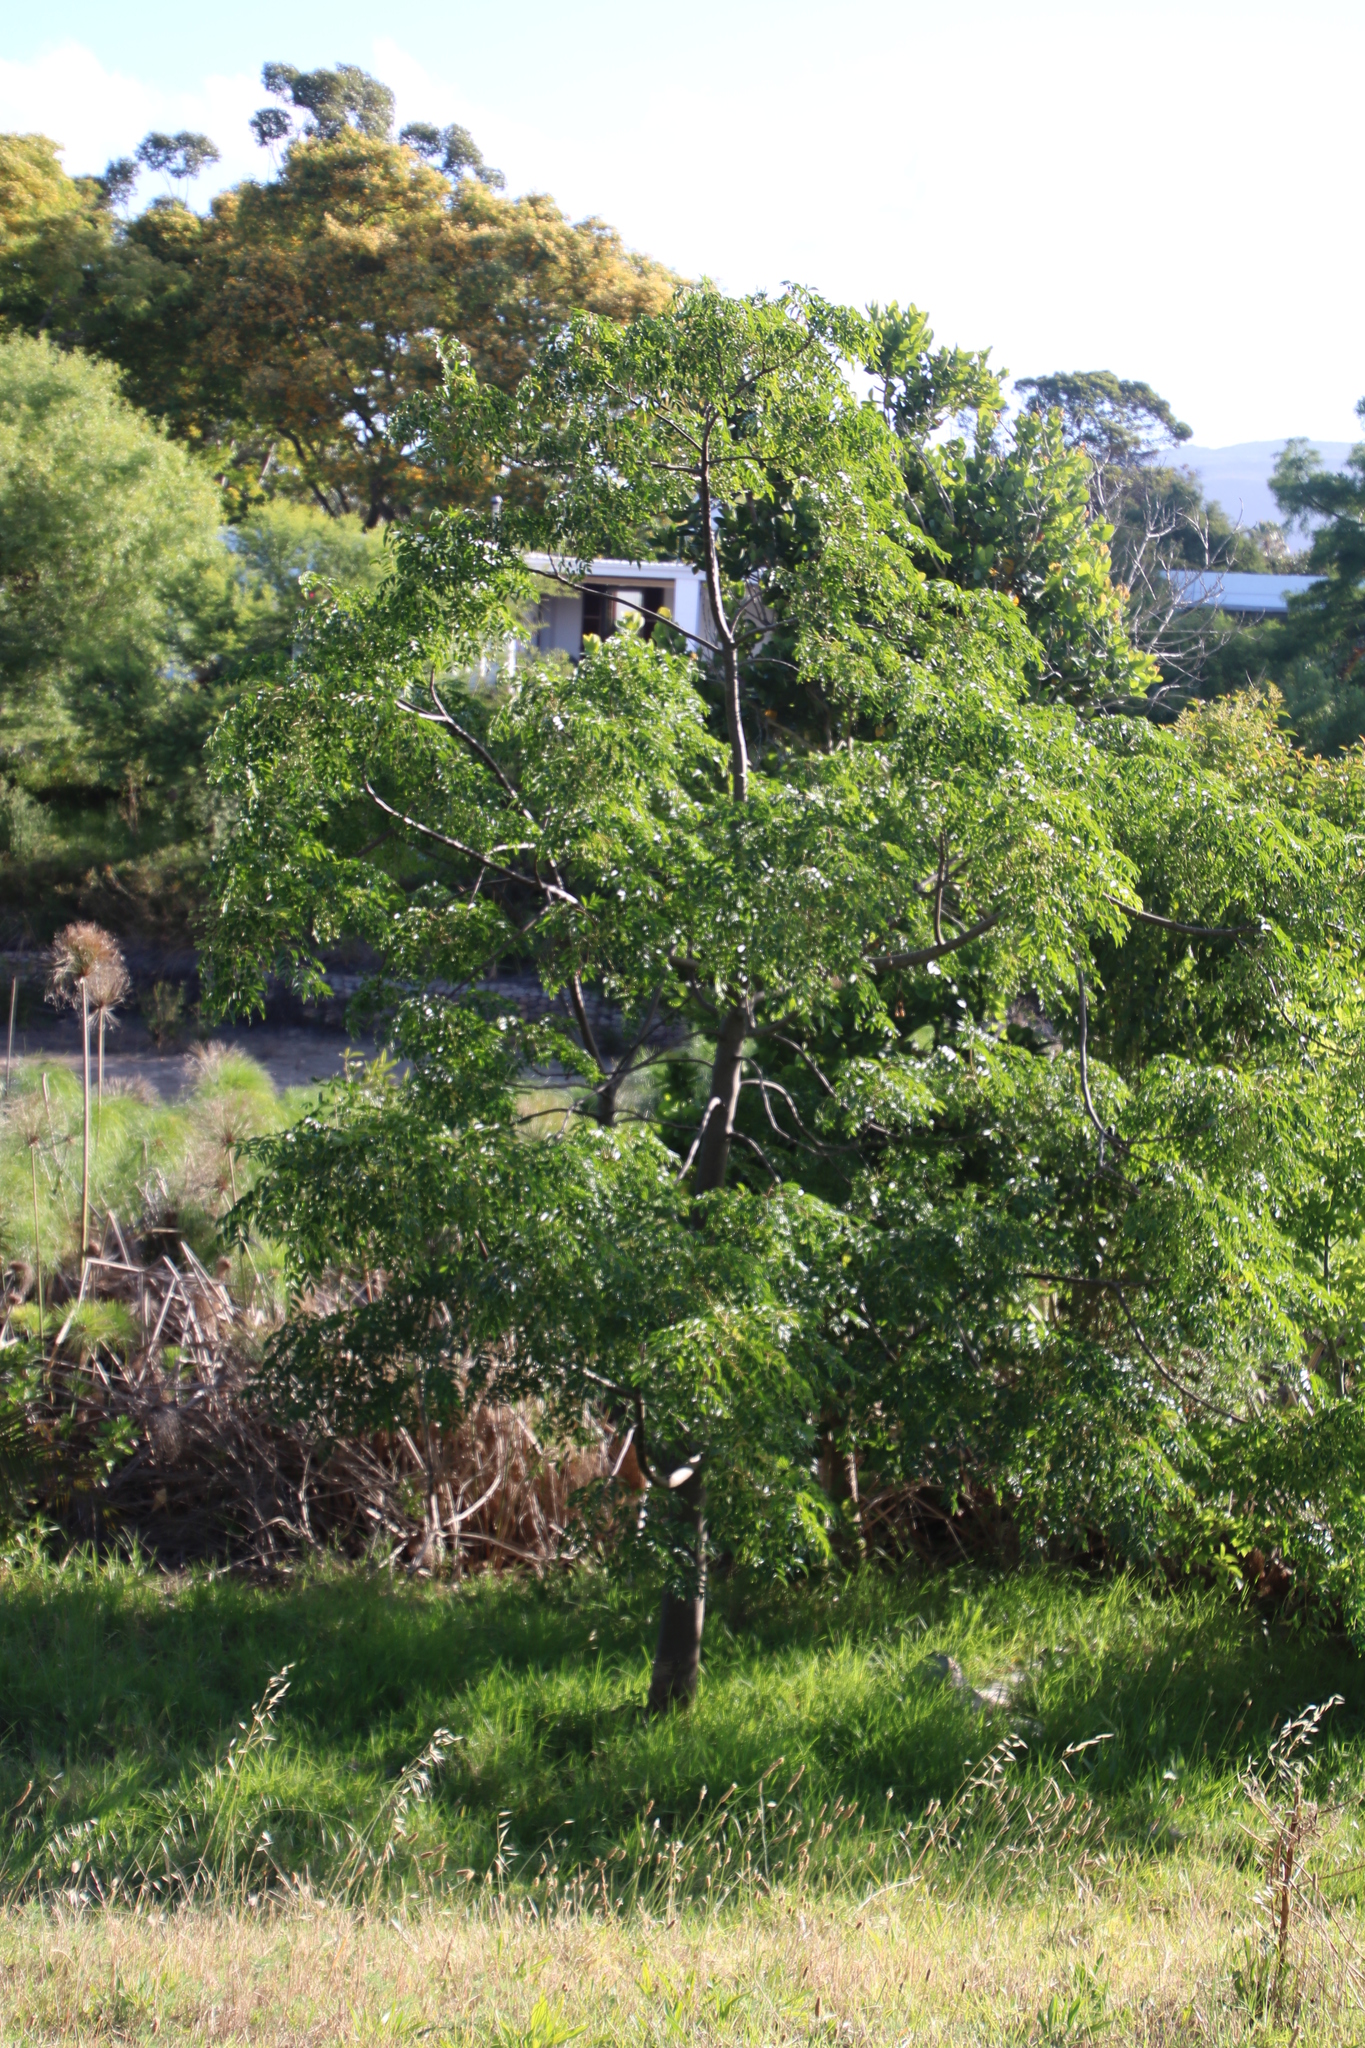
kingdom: Plantae
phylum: Tracheophyta
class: Magnoliopsida
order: Sapindales
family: Meliaceae
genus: Melia
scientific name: Melia azedarach
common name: Chinaberrytree
